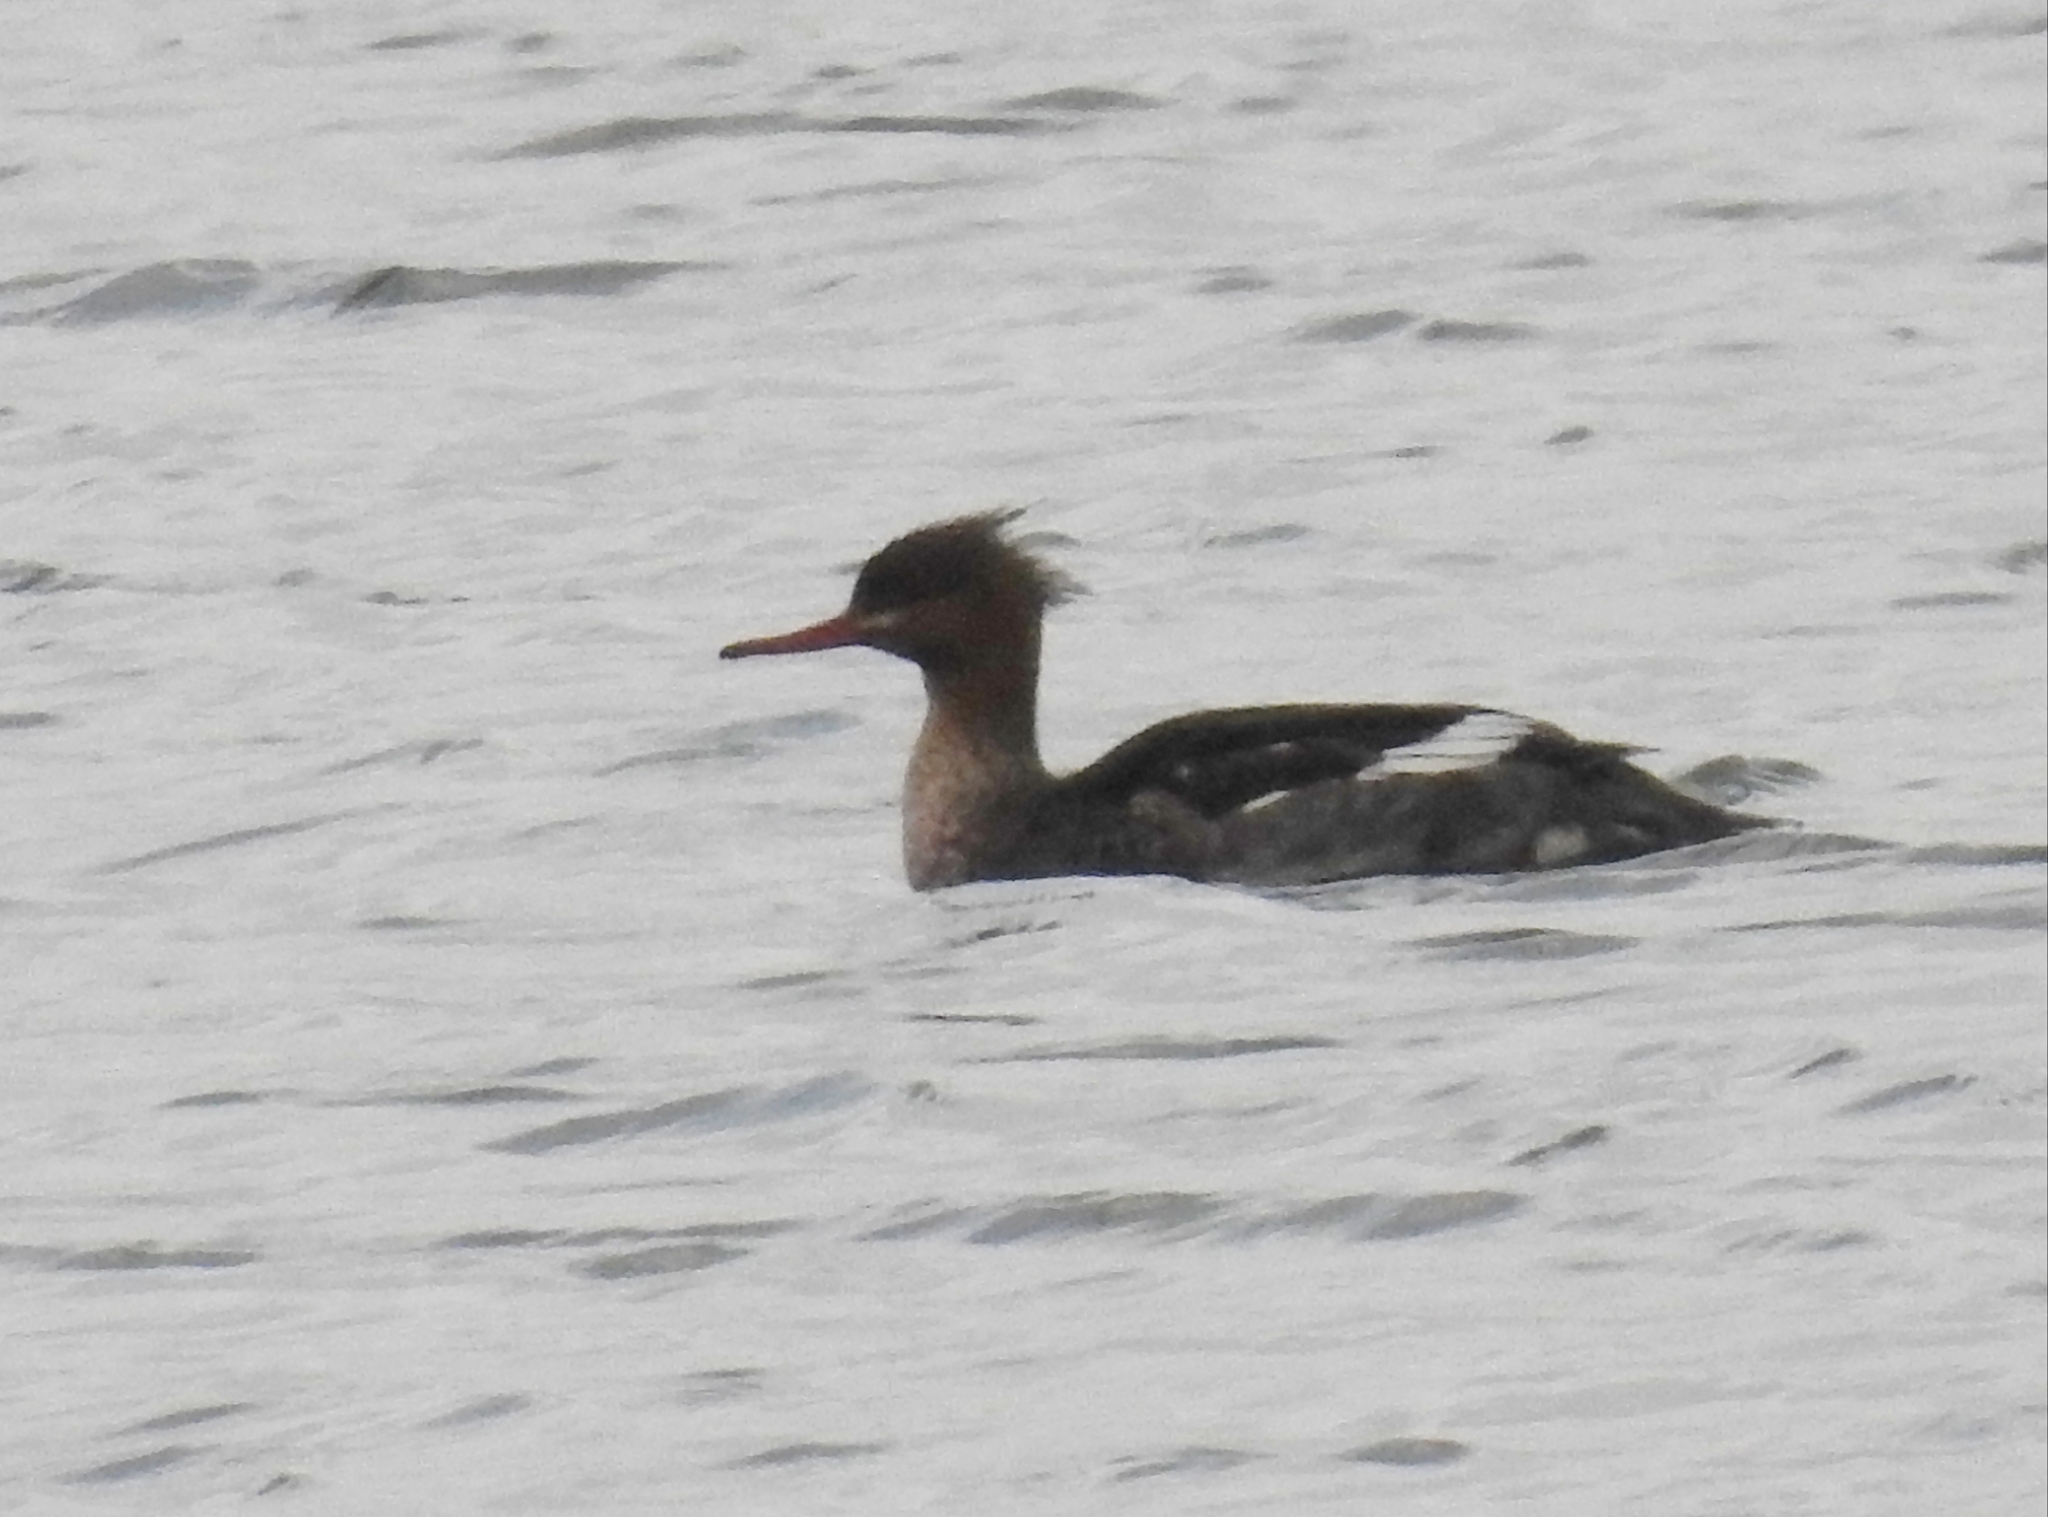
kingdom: Animalia
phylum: Chordata
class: Aves
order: Anseriformes
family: Anatidae
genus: Mergus
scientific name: Mergus serrator
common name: Red-breasted merganser
